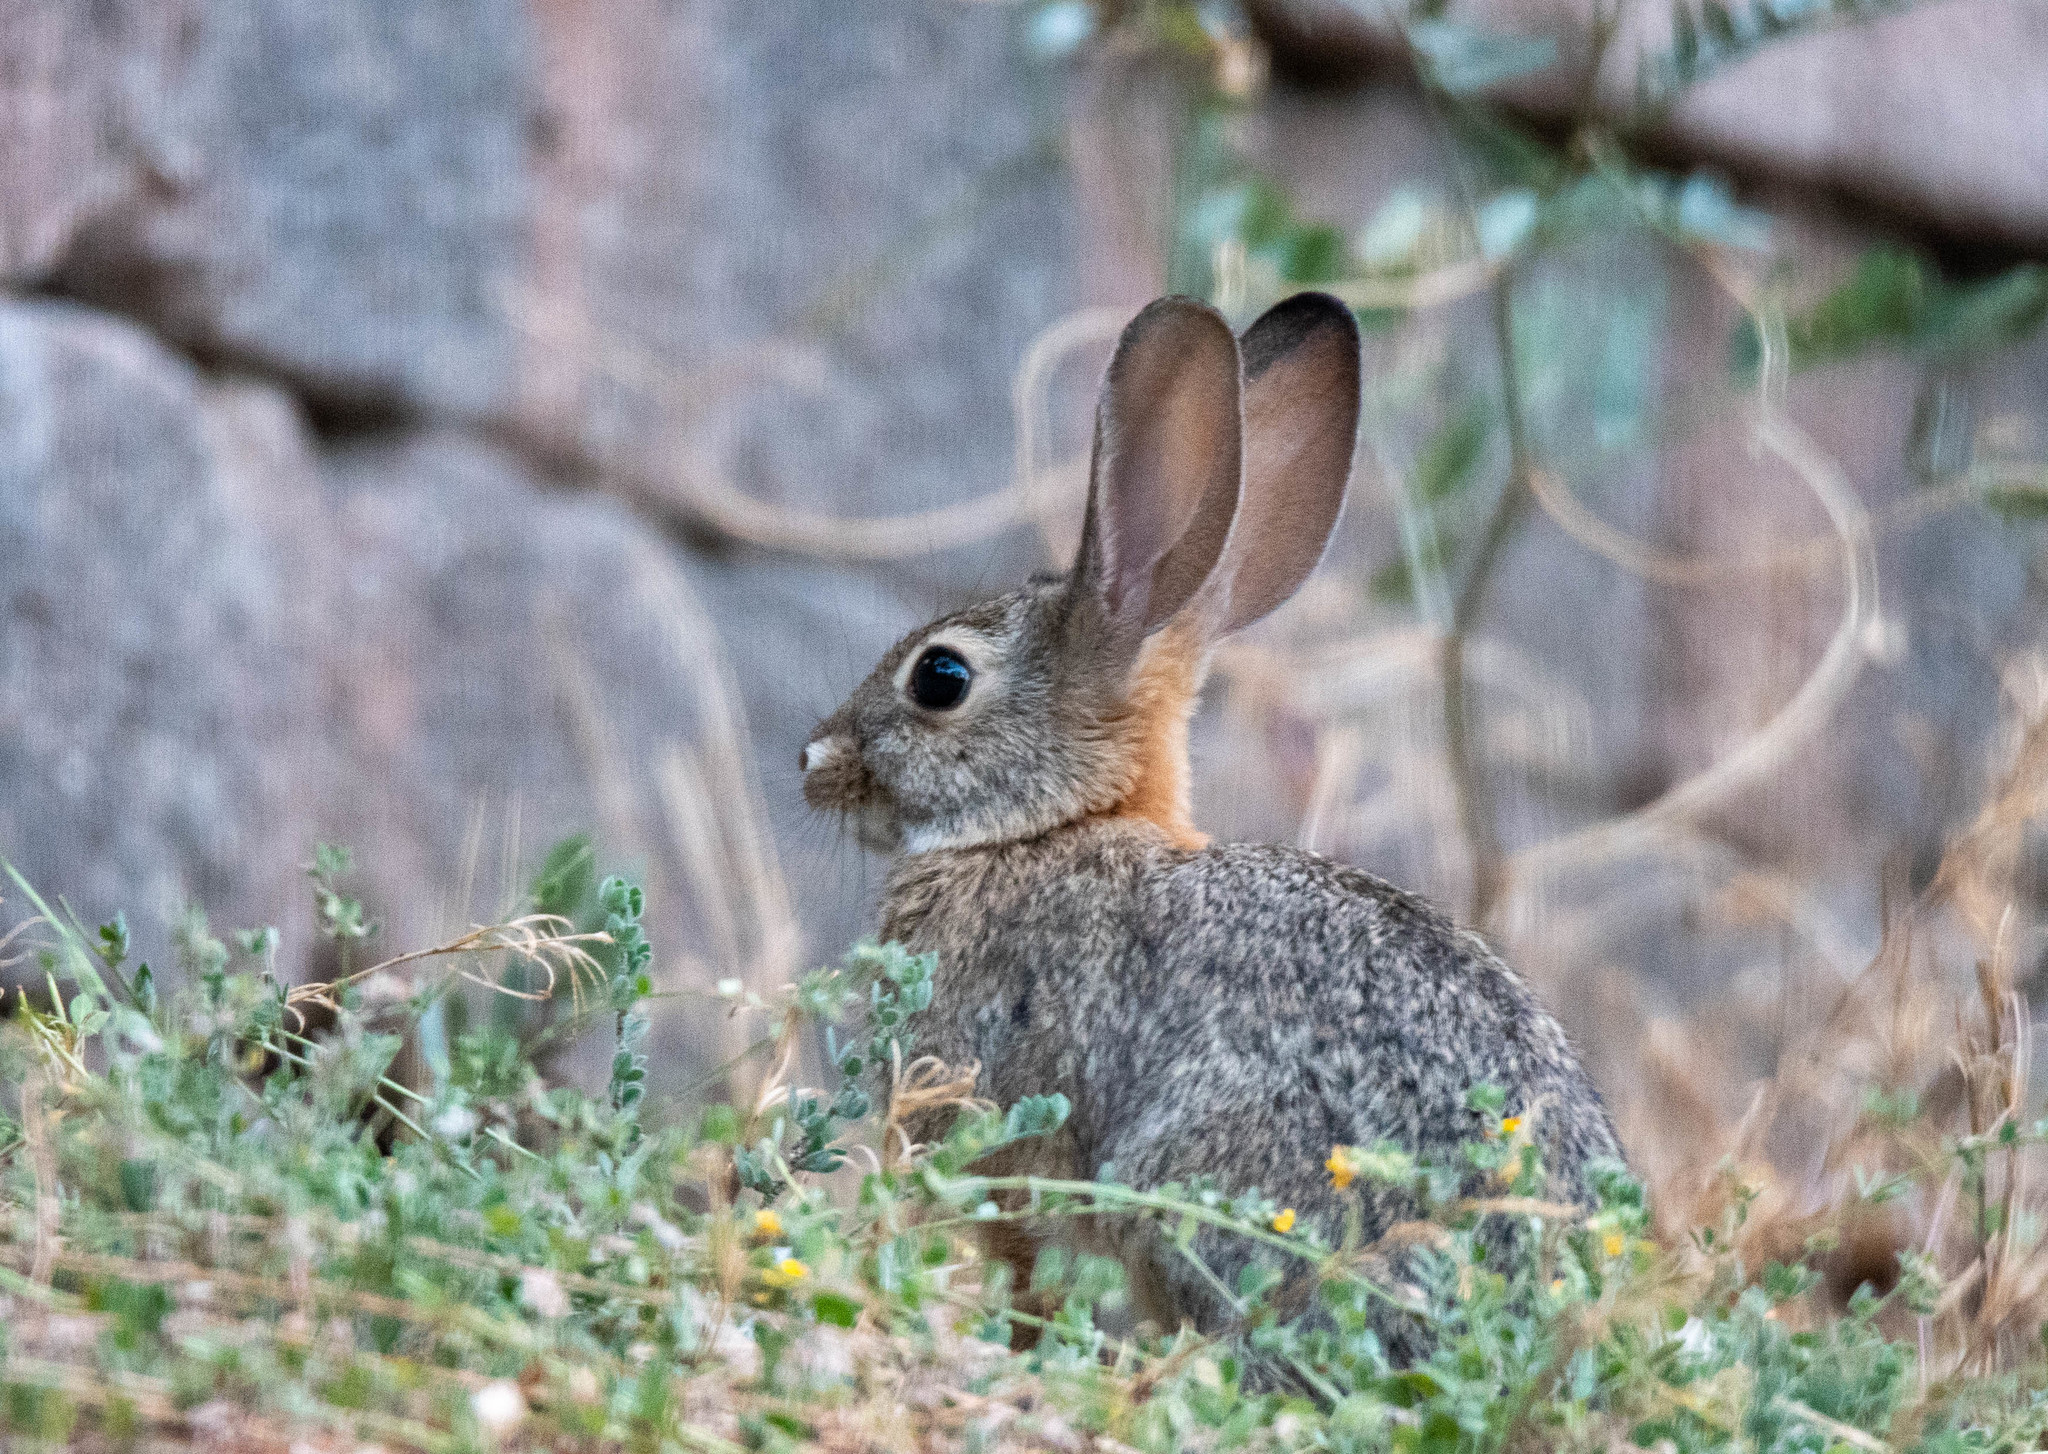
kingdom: Animalia
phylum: Chordata
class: Mammalia
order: Lagomorpha
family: Leporidae
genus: Sylvilagus
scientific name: Sylvilagus audubonii
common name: Desert cottontail
